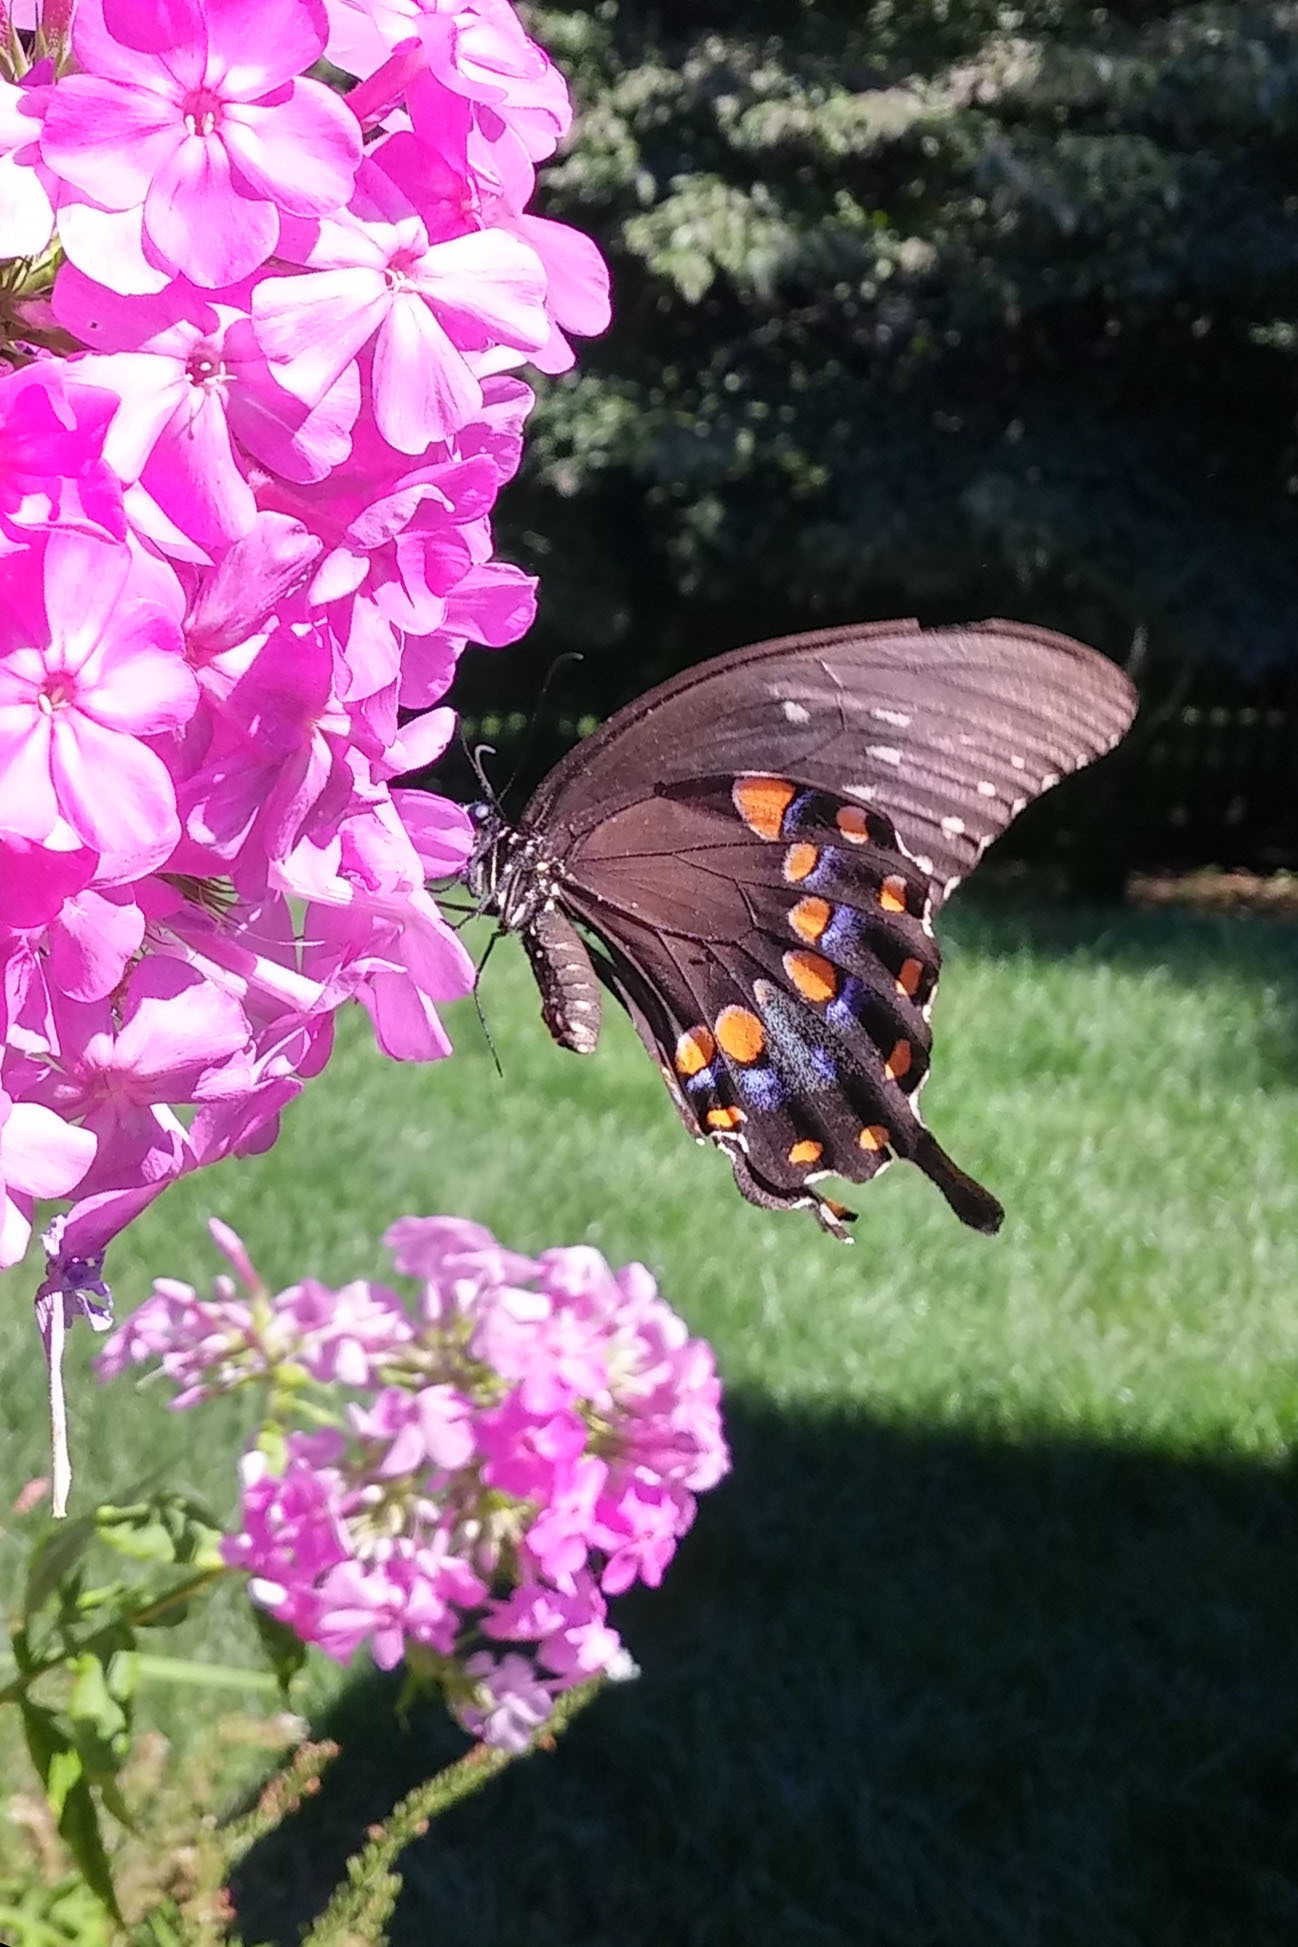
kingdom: Animalia
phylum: Arthropoda
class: Insecta
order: Lepidoptera
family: Papilionidae
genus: Papilio
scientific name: Papilio troilus
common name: Spicebush swallowtail
